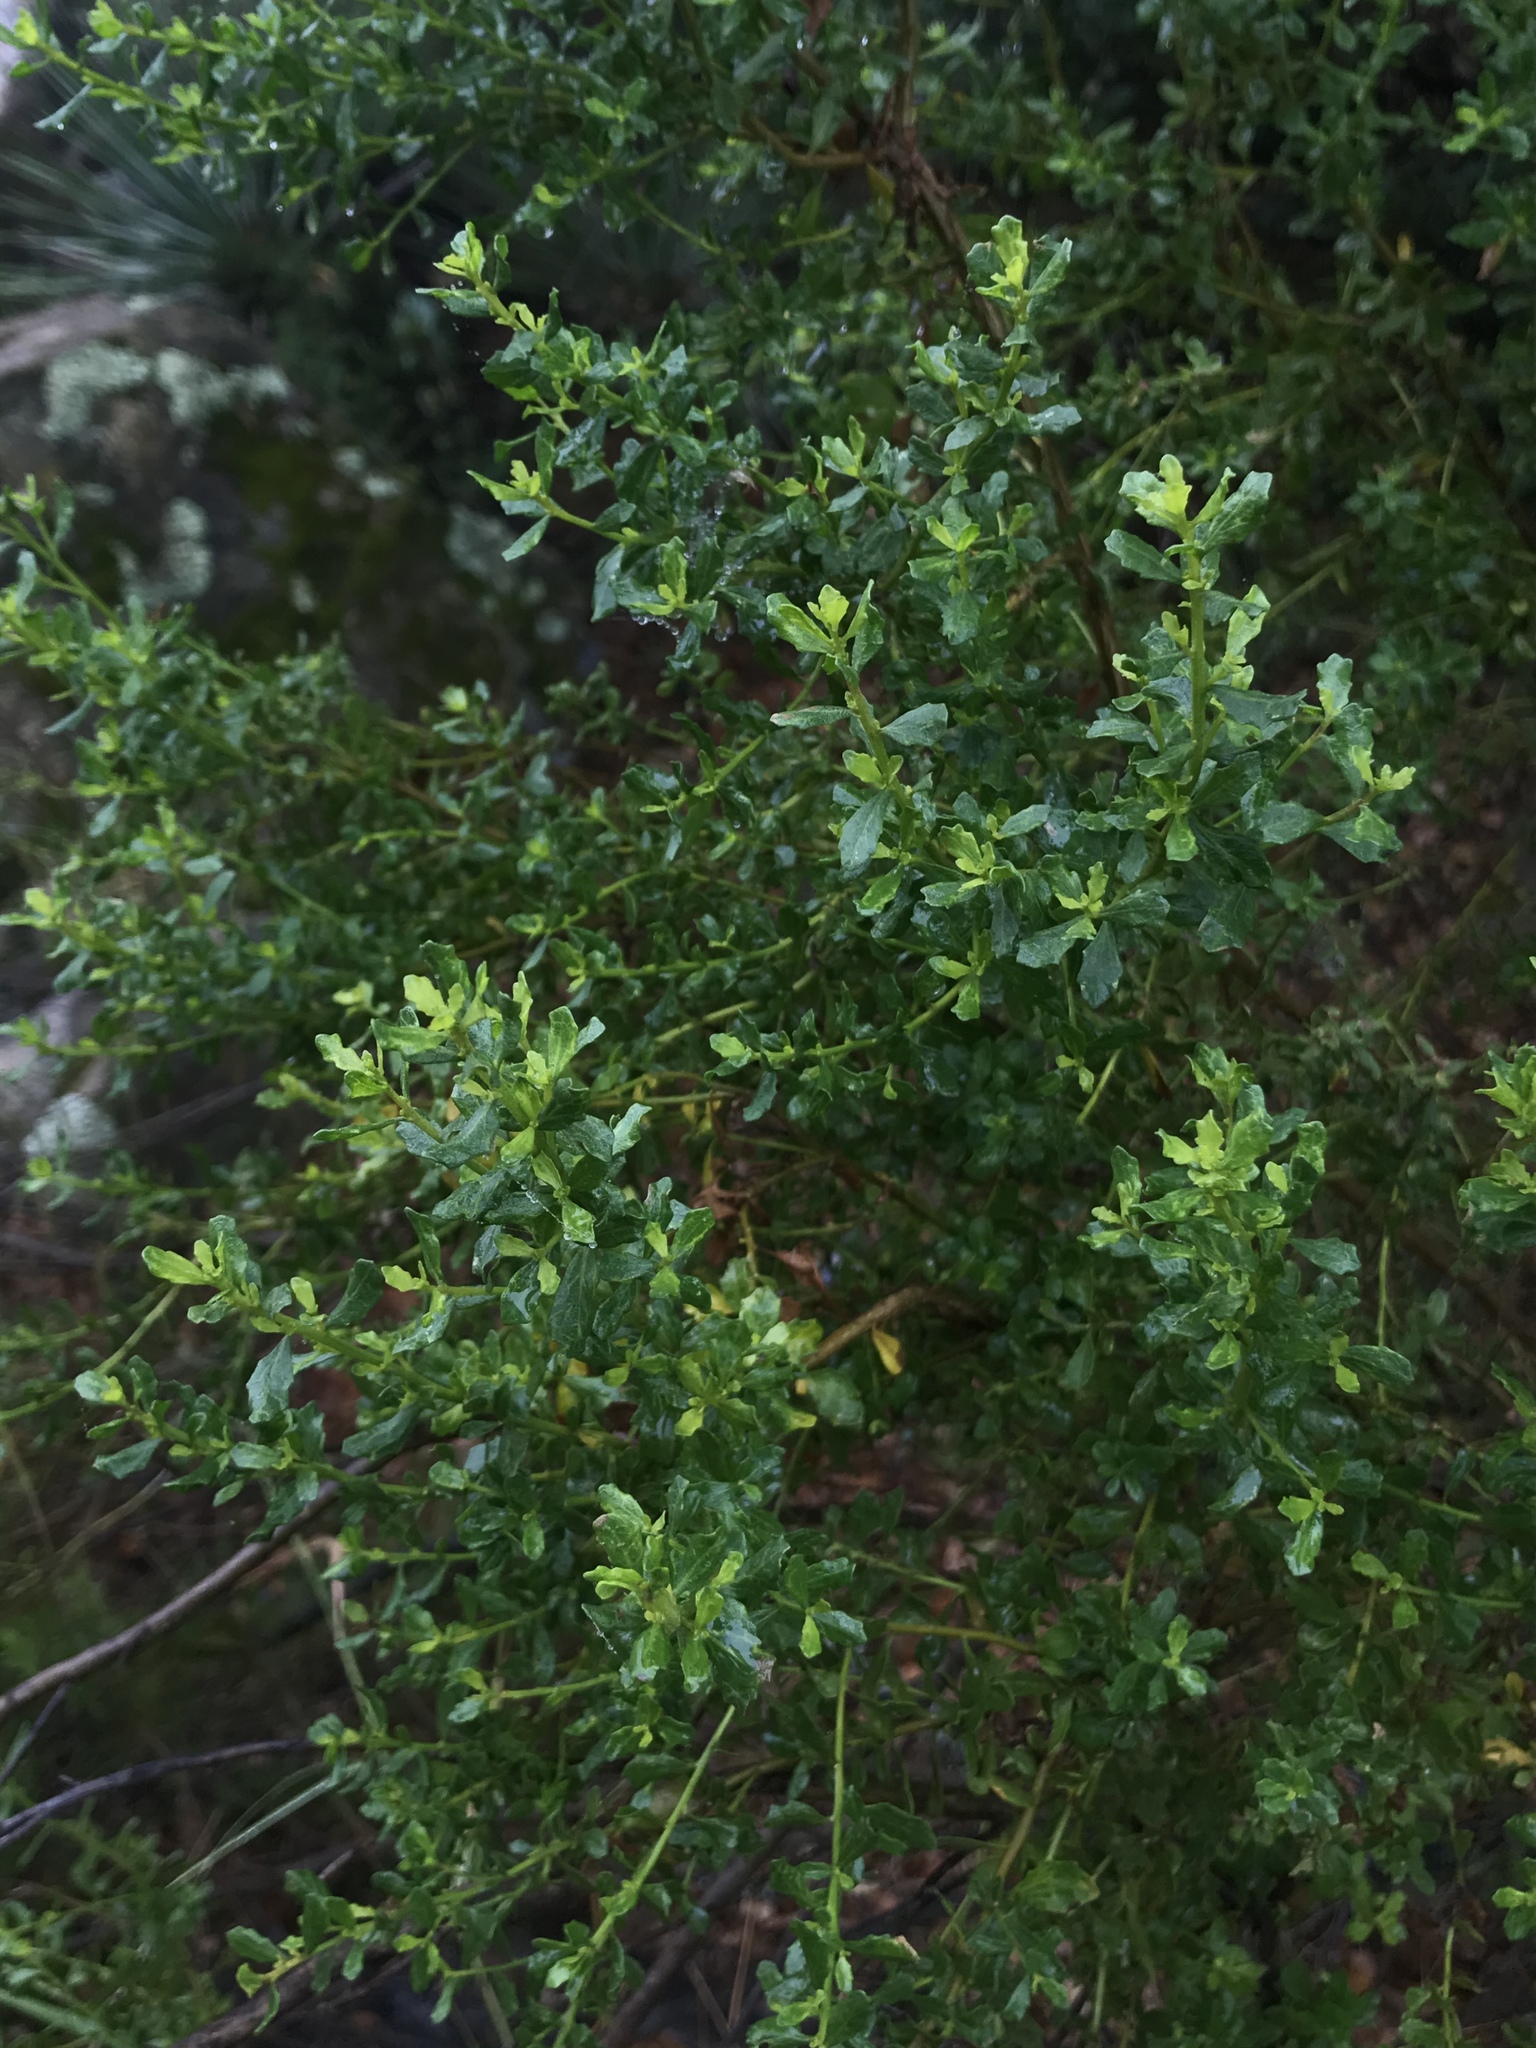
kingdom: Plantae
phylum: Tracheophyta
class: Magnoliopsida
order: Asterales
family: Asteraceae
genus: Baccharis
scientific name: Baccharis pilularis
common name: Coyotebrush
